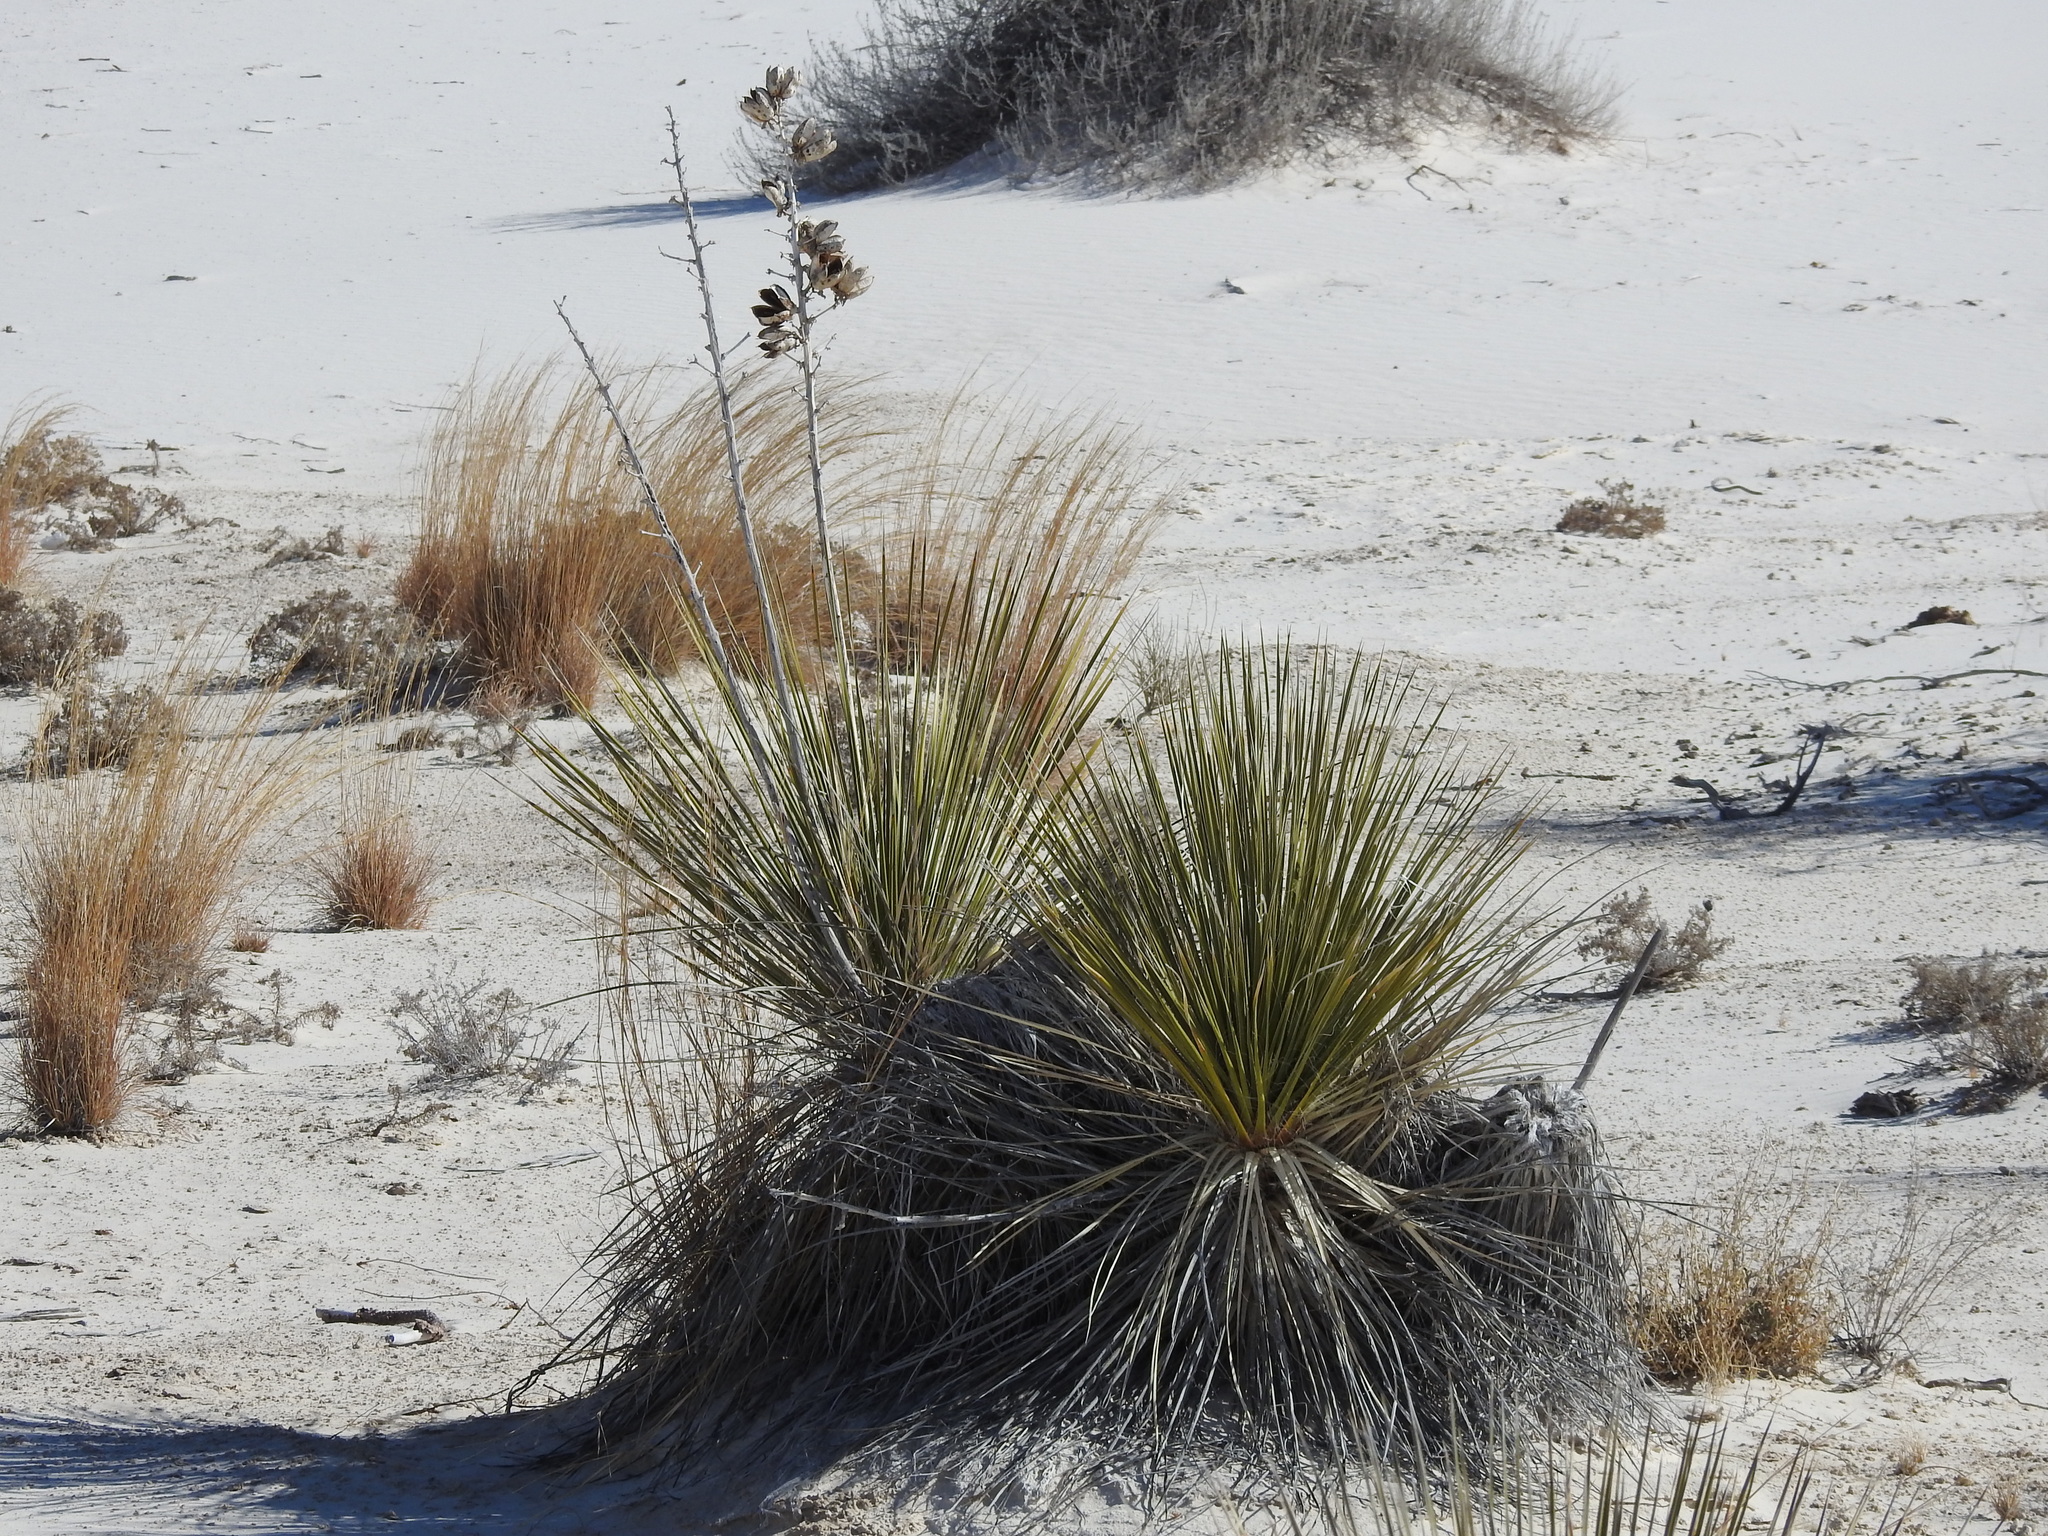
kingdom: Plantae
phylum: Tracheophyta
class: Liliopsida
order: Asparagales
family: Asparagaceae
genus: Yucca
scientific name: Yucca elata
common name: Palmella
